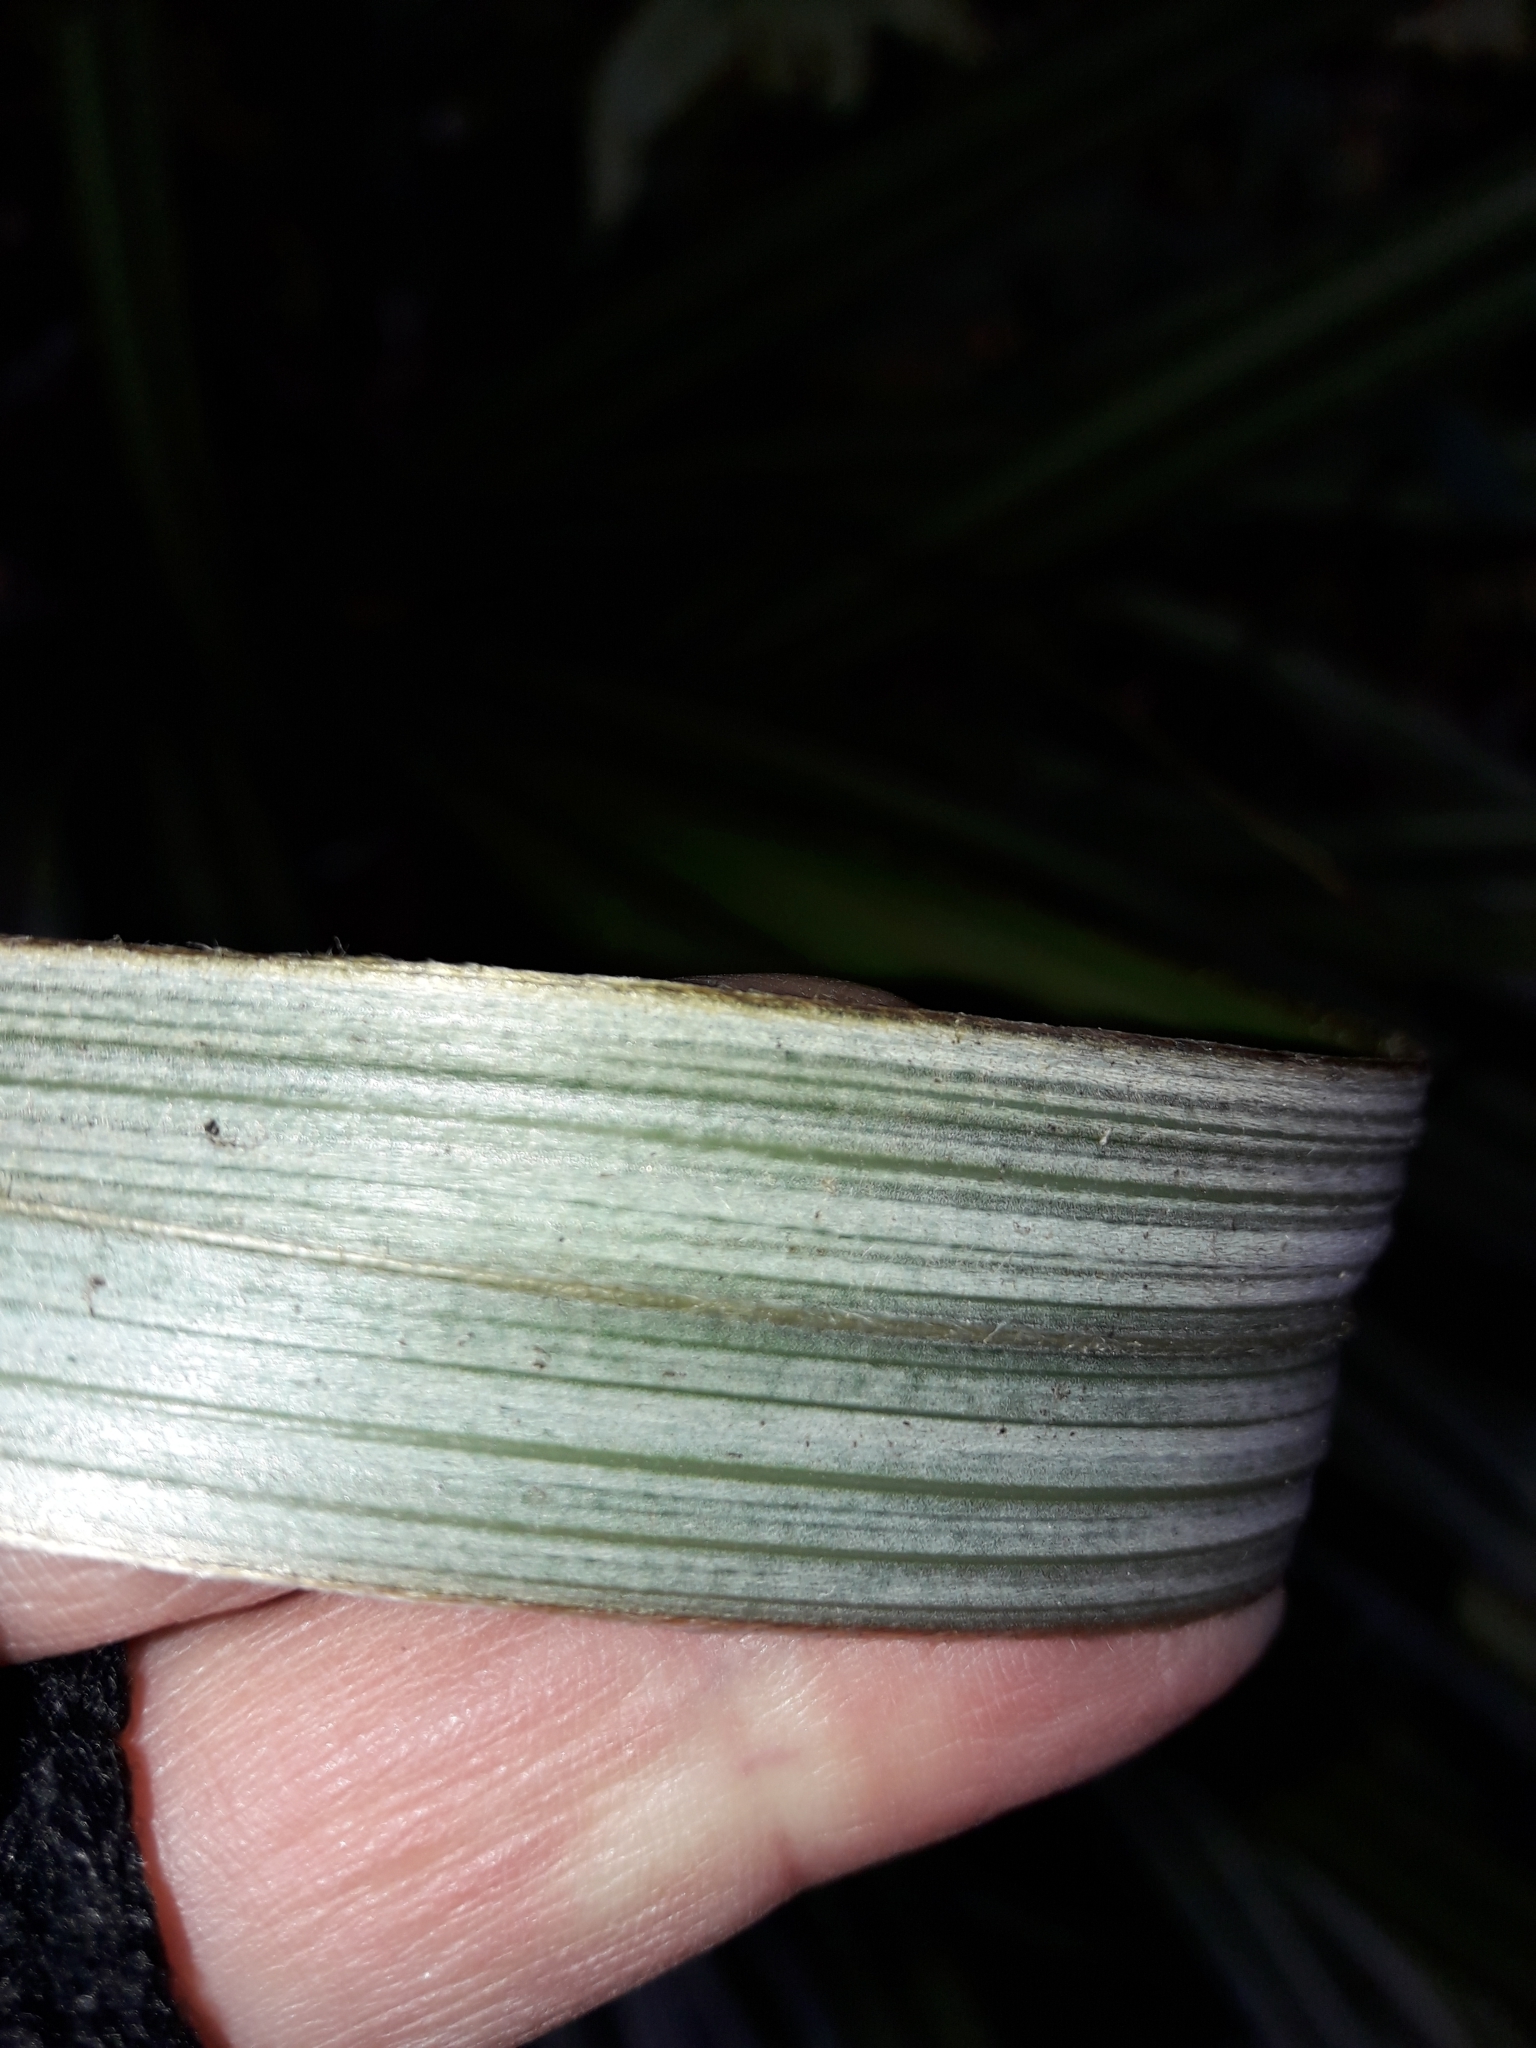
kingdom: Plantae
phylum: Tracheophyta
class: Liliopsida
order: Asparagales
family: Asteliaceae
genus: Astelia
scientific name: Astelia nervosa
